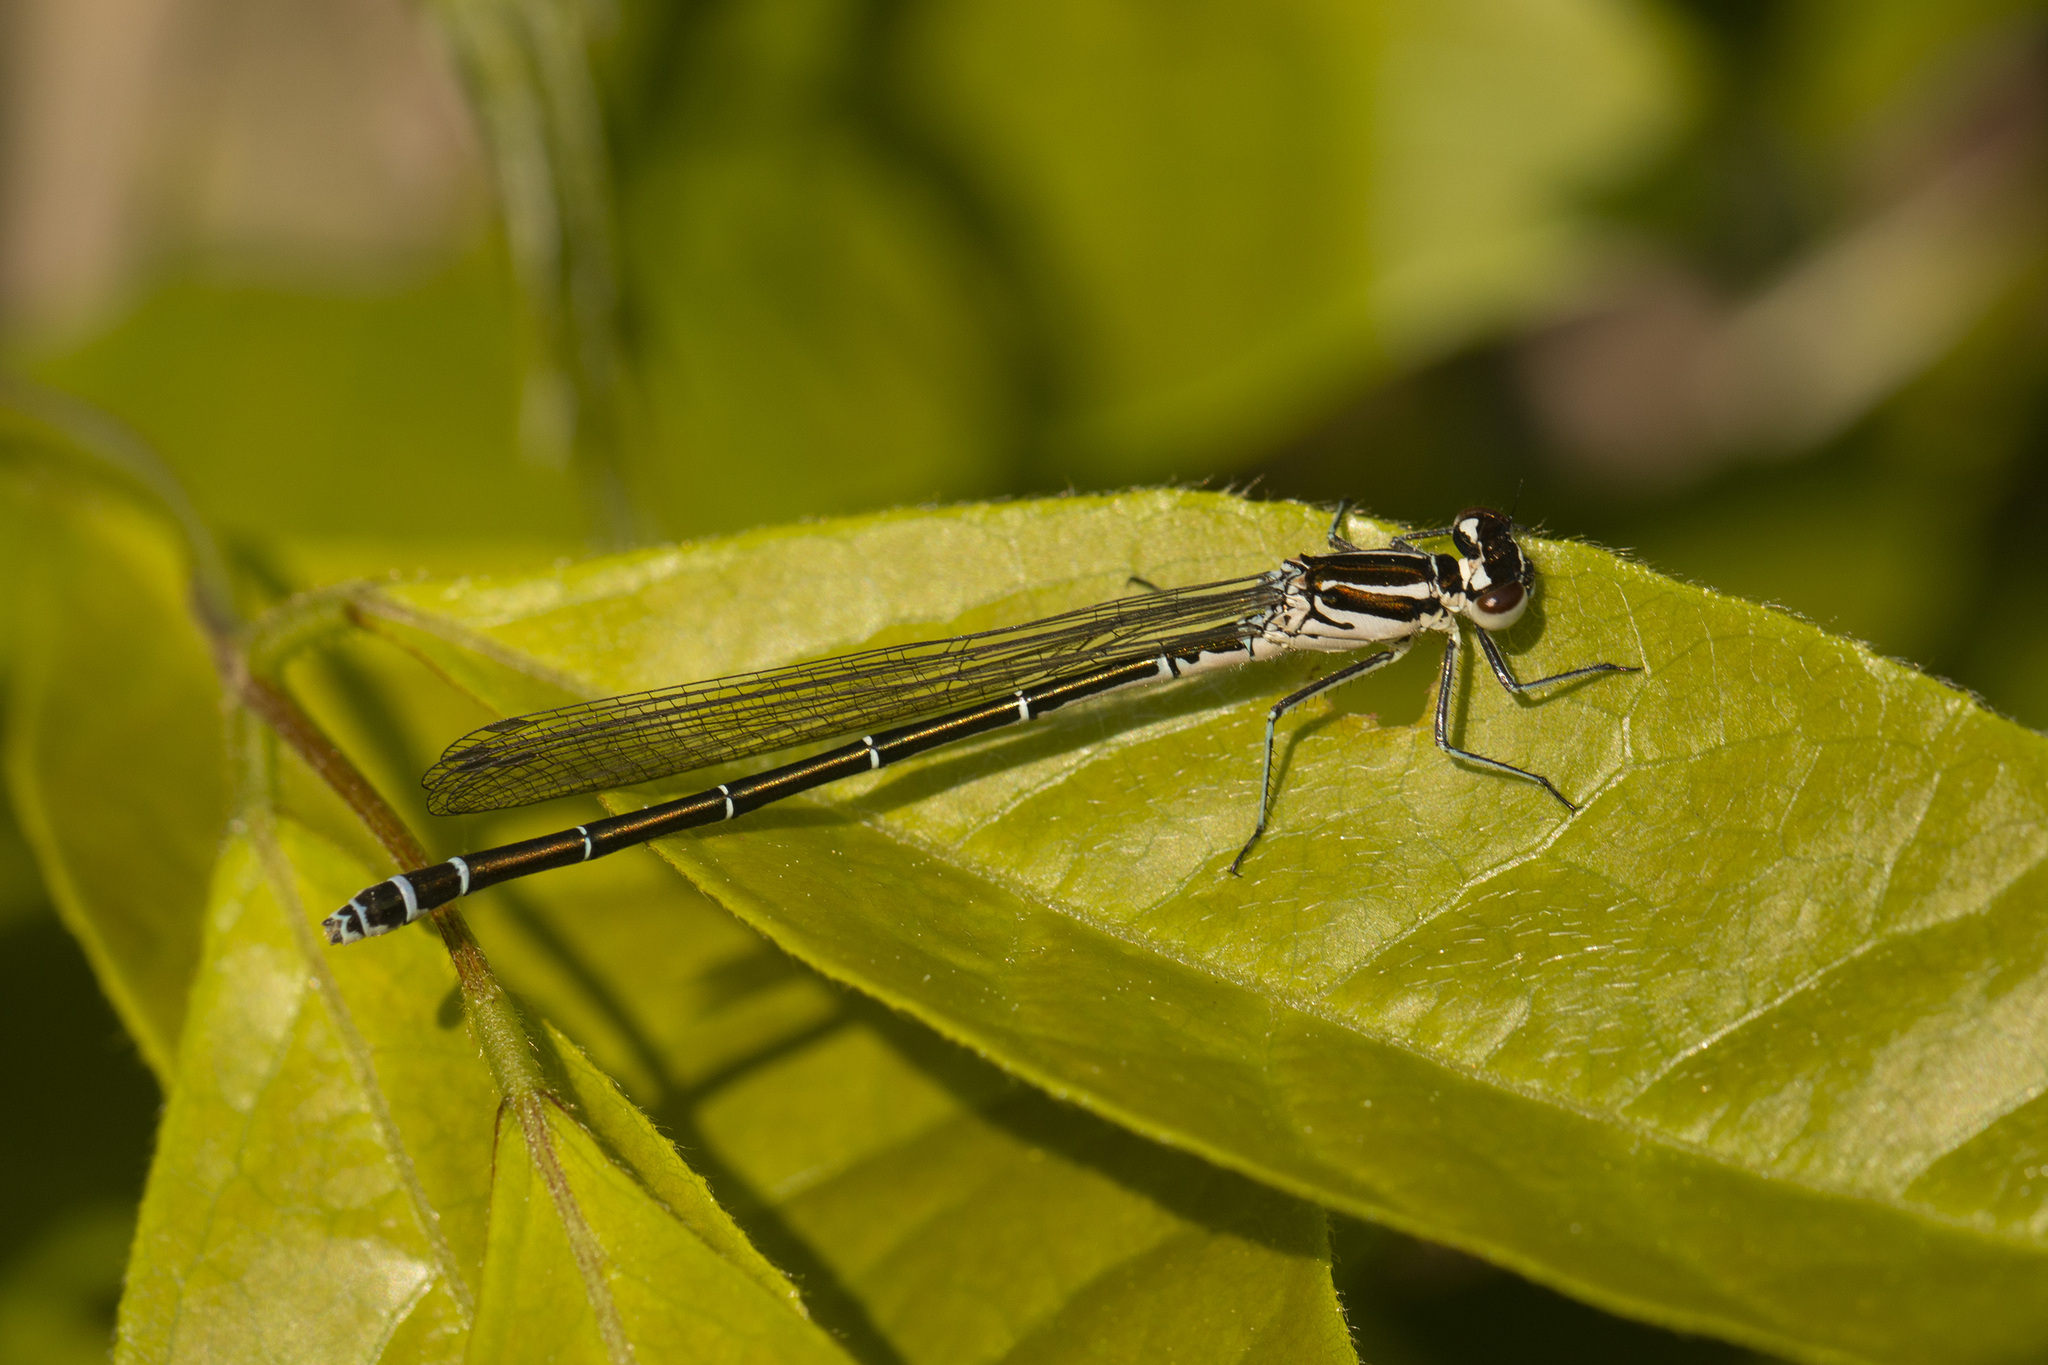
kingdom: Animalia
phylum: Arthropoda
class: Insecta
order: Odonata
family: Coenagrionidae
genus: Coenagrion
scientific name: Coenagrion puella
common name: Azure damselfly
